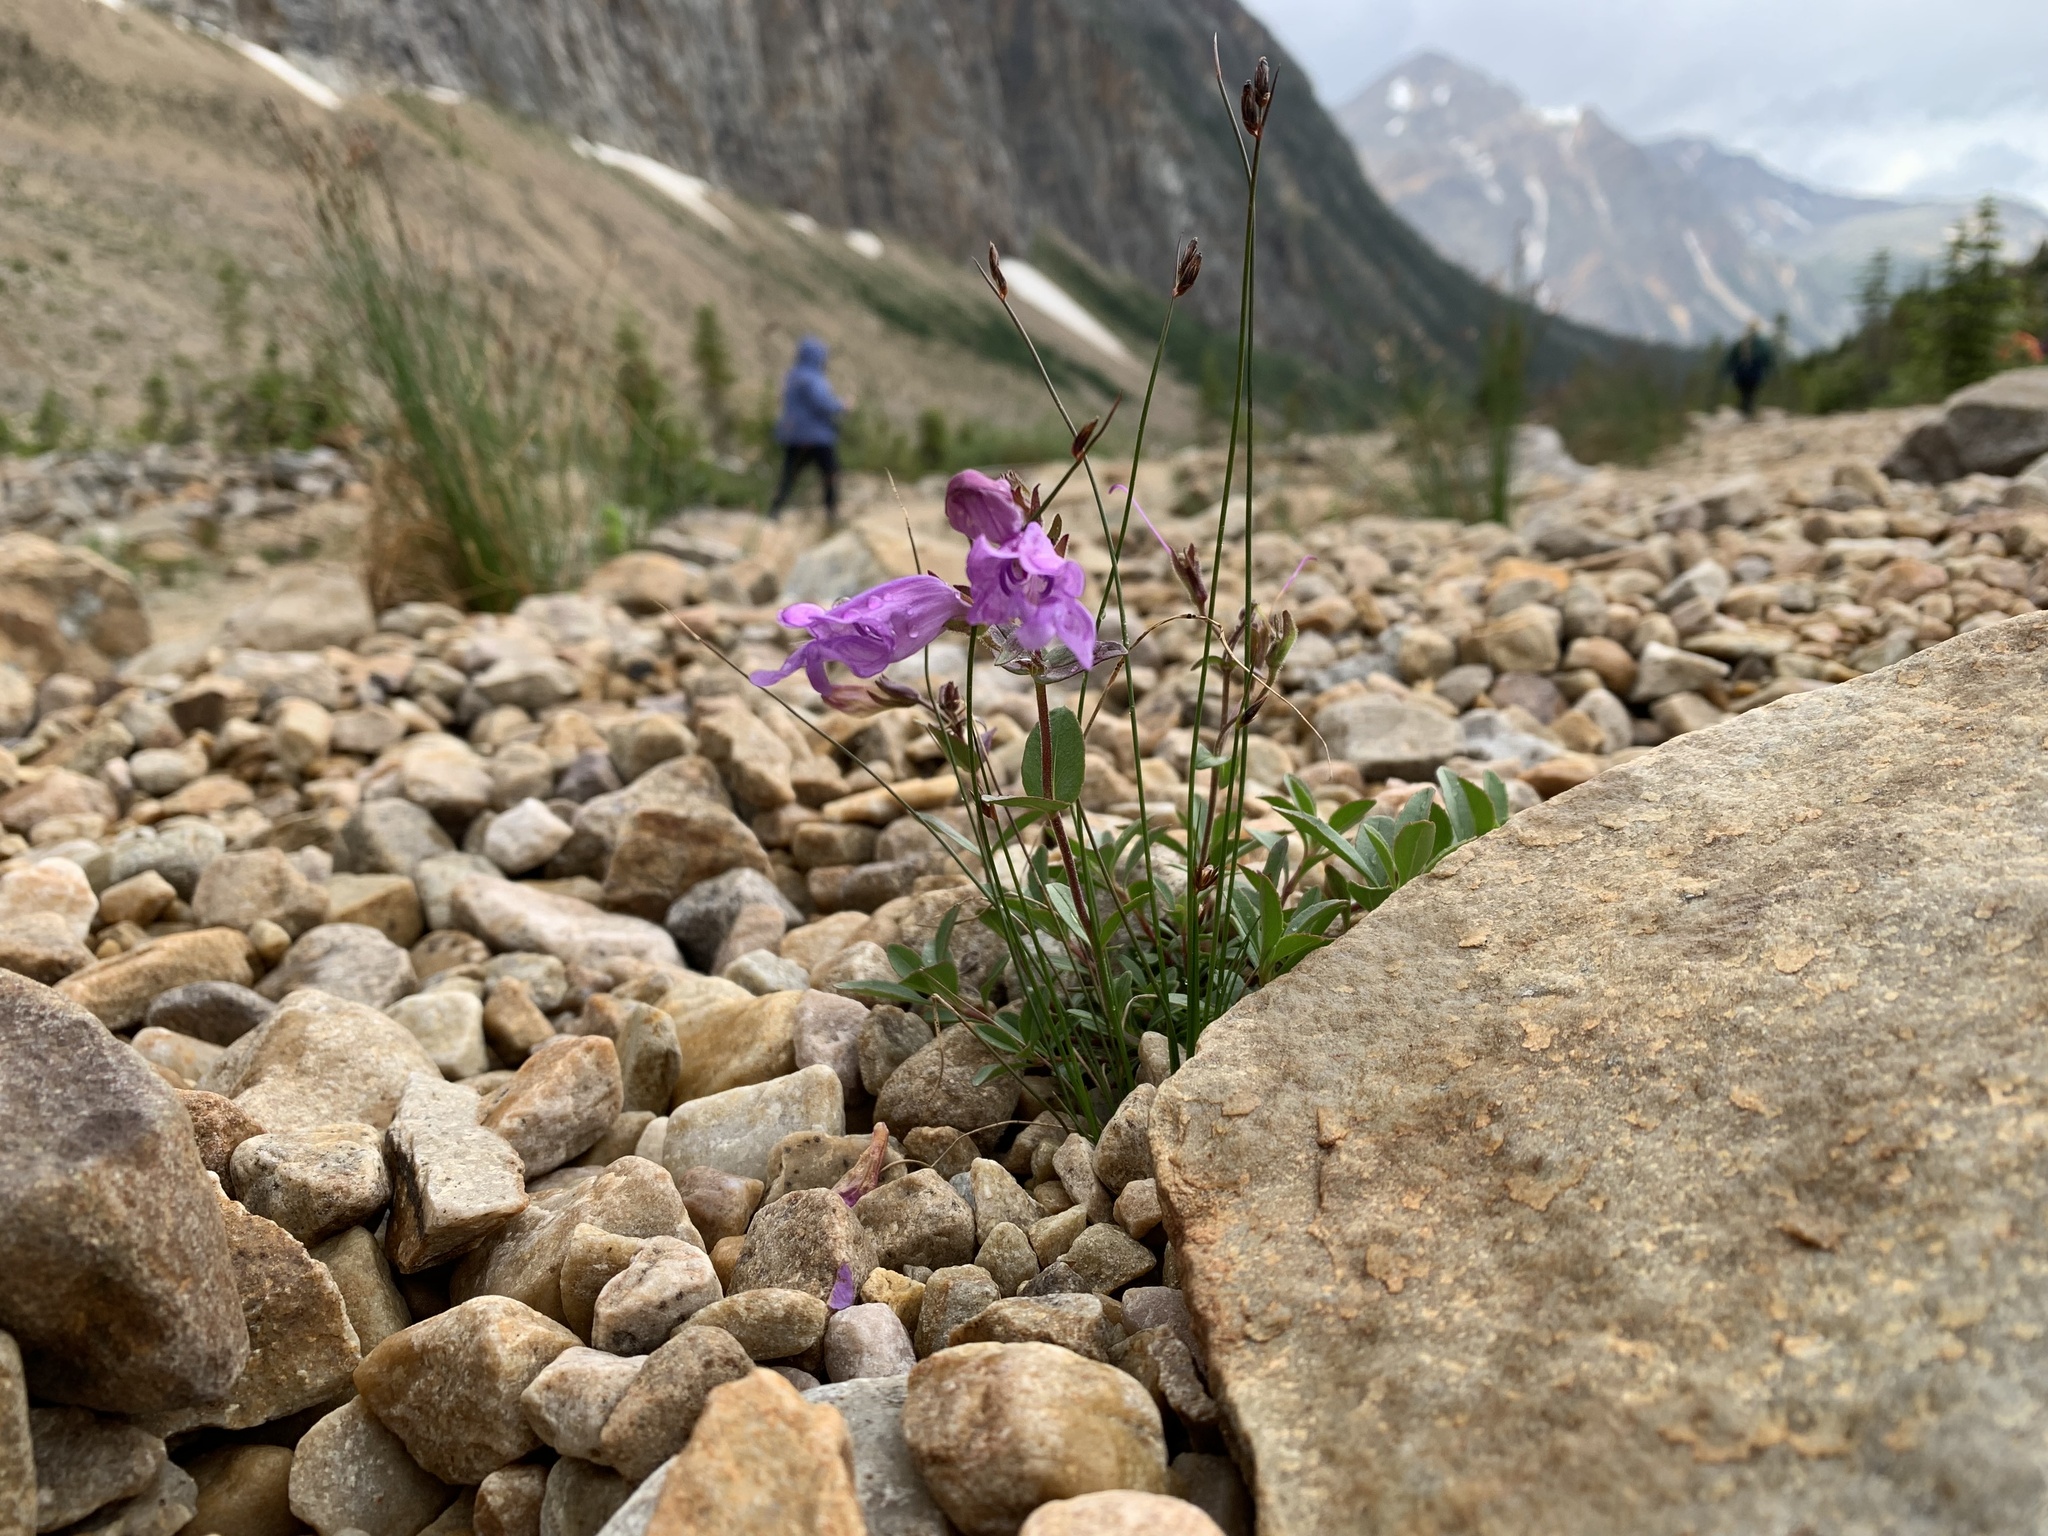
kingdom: Plantae
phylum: Tracheophyta
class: Magnoliopsida
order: Lamiales
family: Plantaginaceae
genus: Penstemon
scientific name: Penstemon ellipticus
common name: Alpine beardtongue
